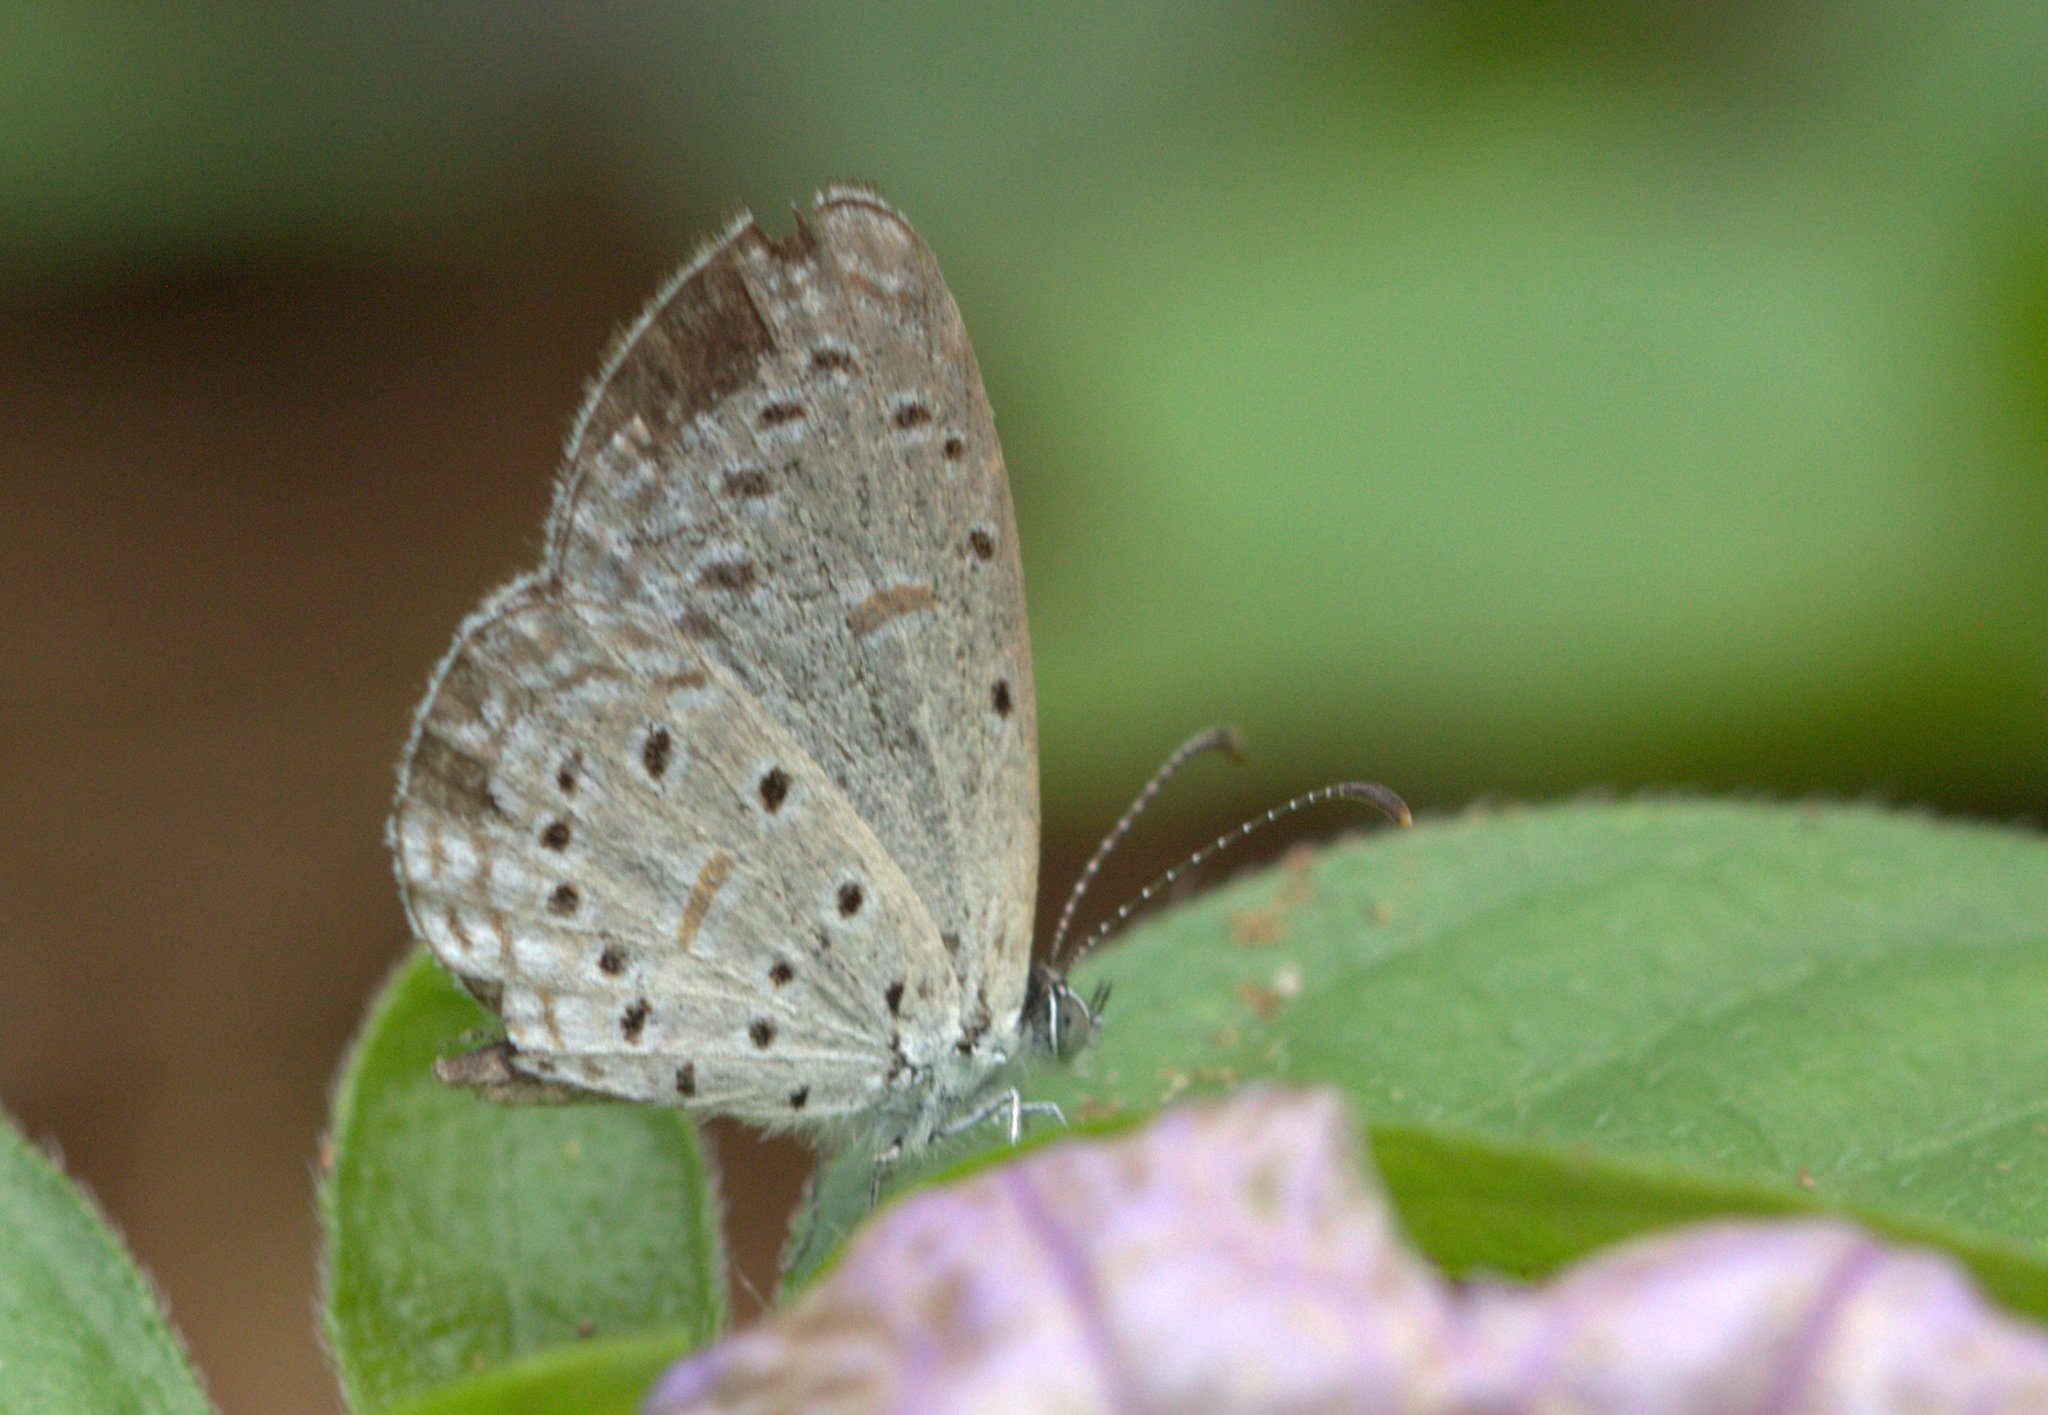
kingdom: Animalia
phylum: Arthropoda
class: Insecta
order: Lepidoptera
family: Lycaenidae
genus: Zizula
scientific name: Zizula hylax
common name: Gaika blue
